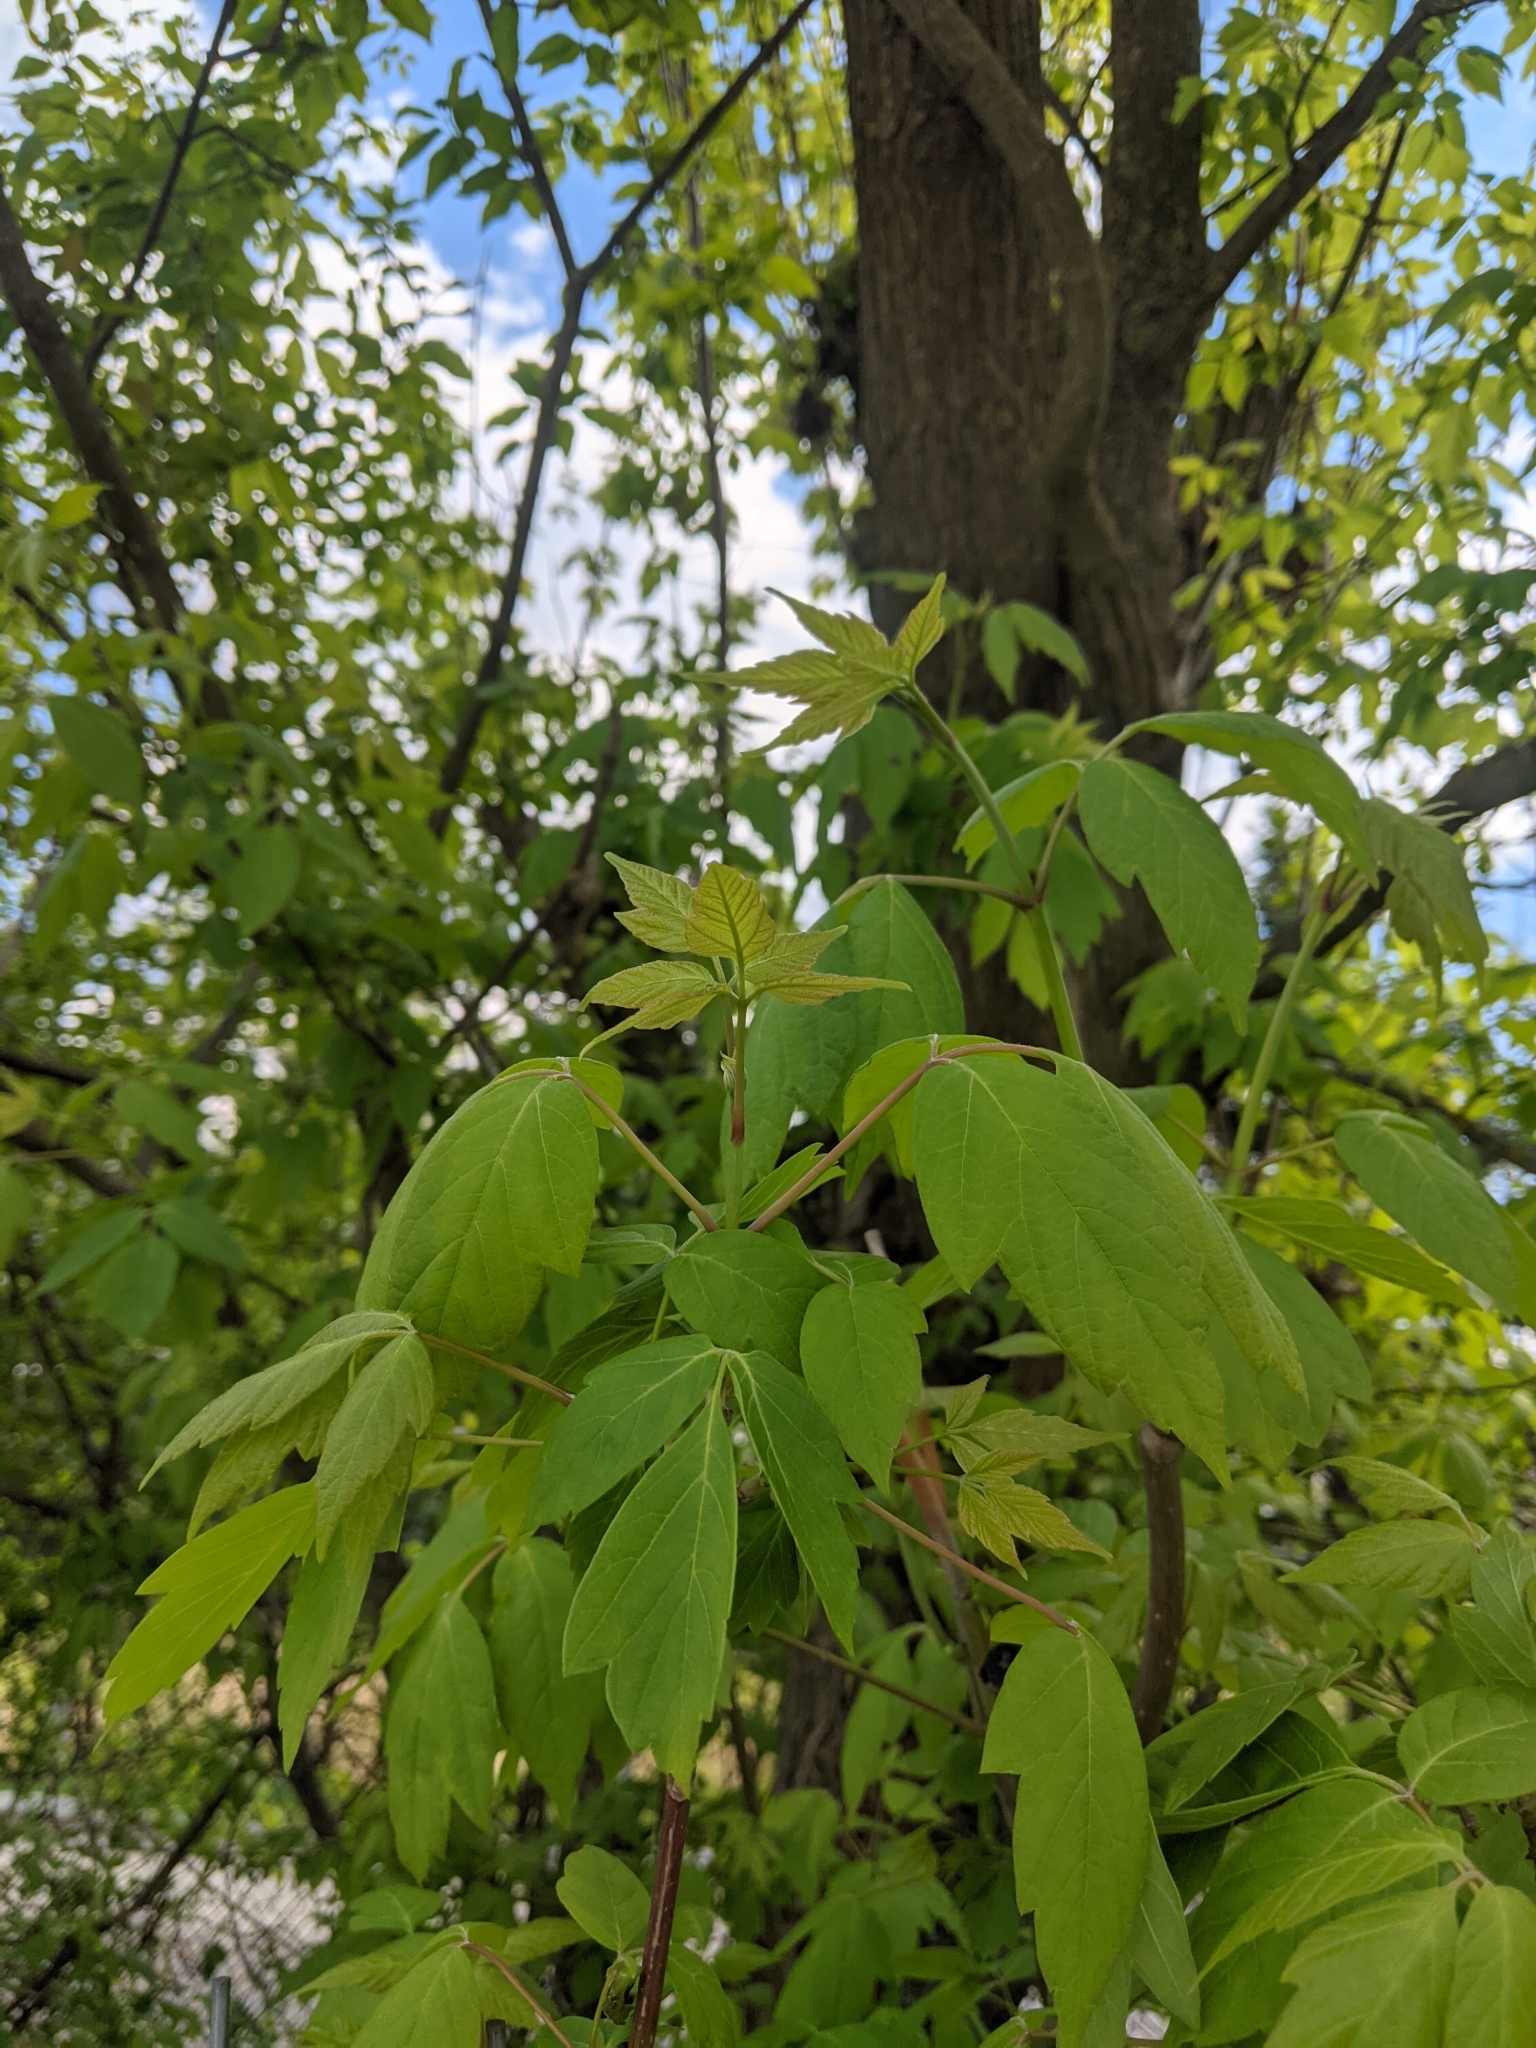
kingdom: Plantae
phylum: Tracheophyta
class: Magnoliopsida
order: Sapindales
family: Sapindaceae
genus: Acer
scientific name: Acer negundo
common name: Ashleaf maple
